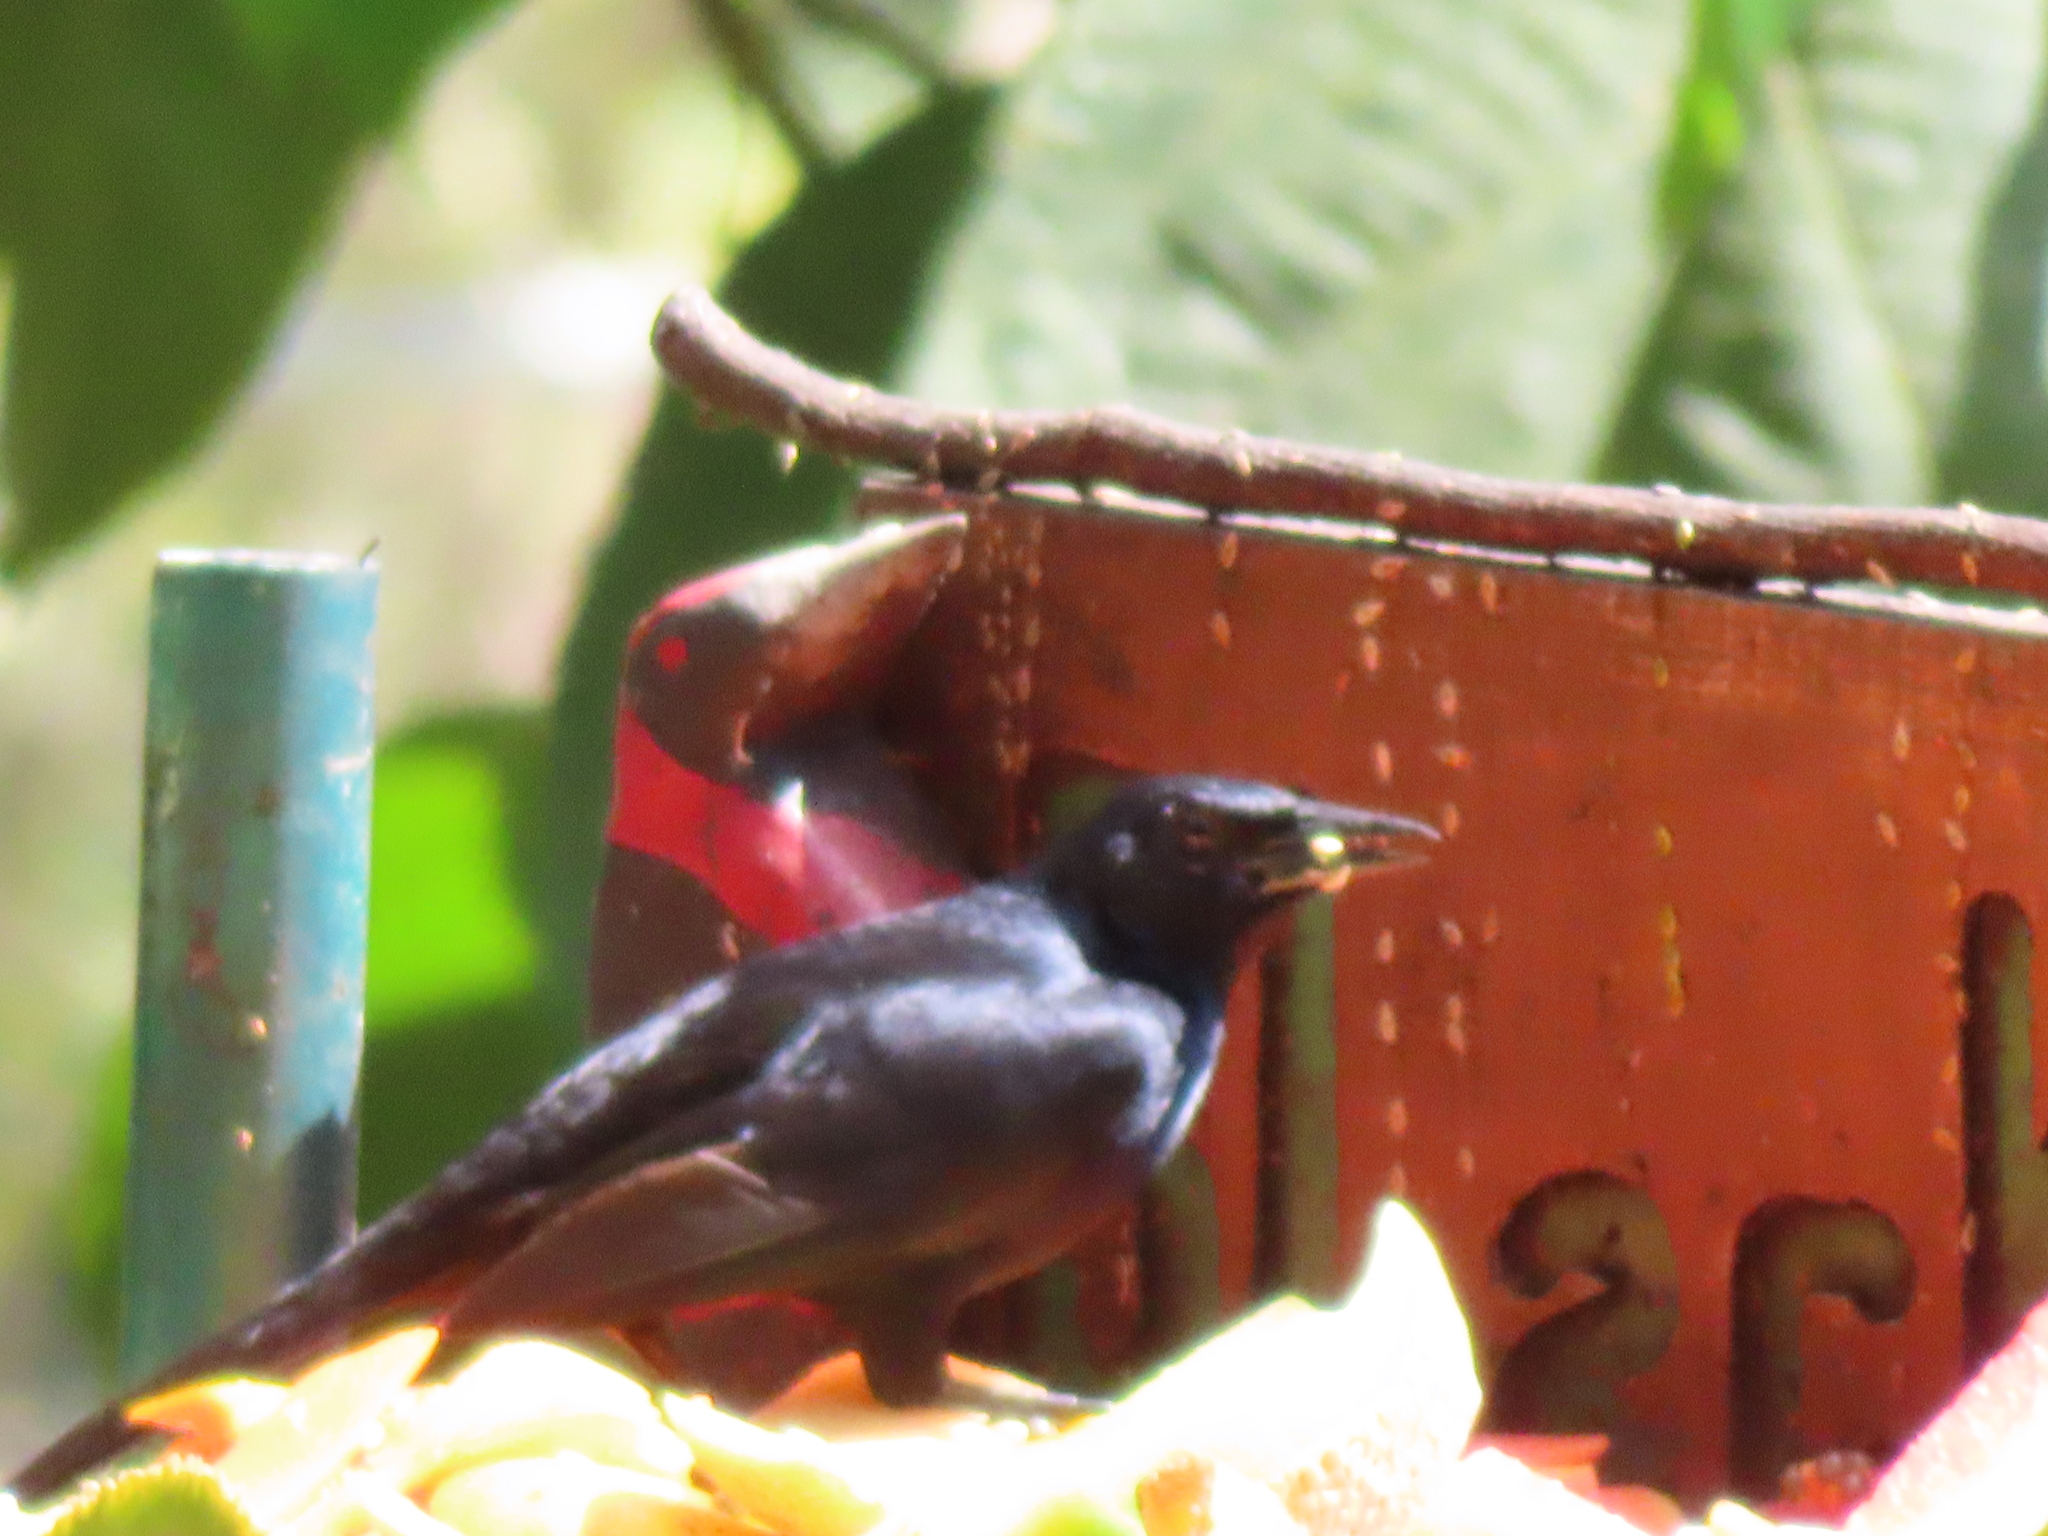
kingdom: Animalia
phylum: Chordata
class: Aves
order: Passeriformes
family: Icteridae
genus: Dives
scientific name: Dives dives
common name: Melodious blackbird
